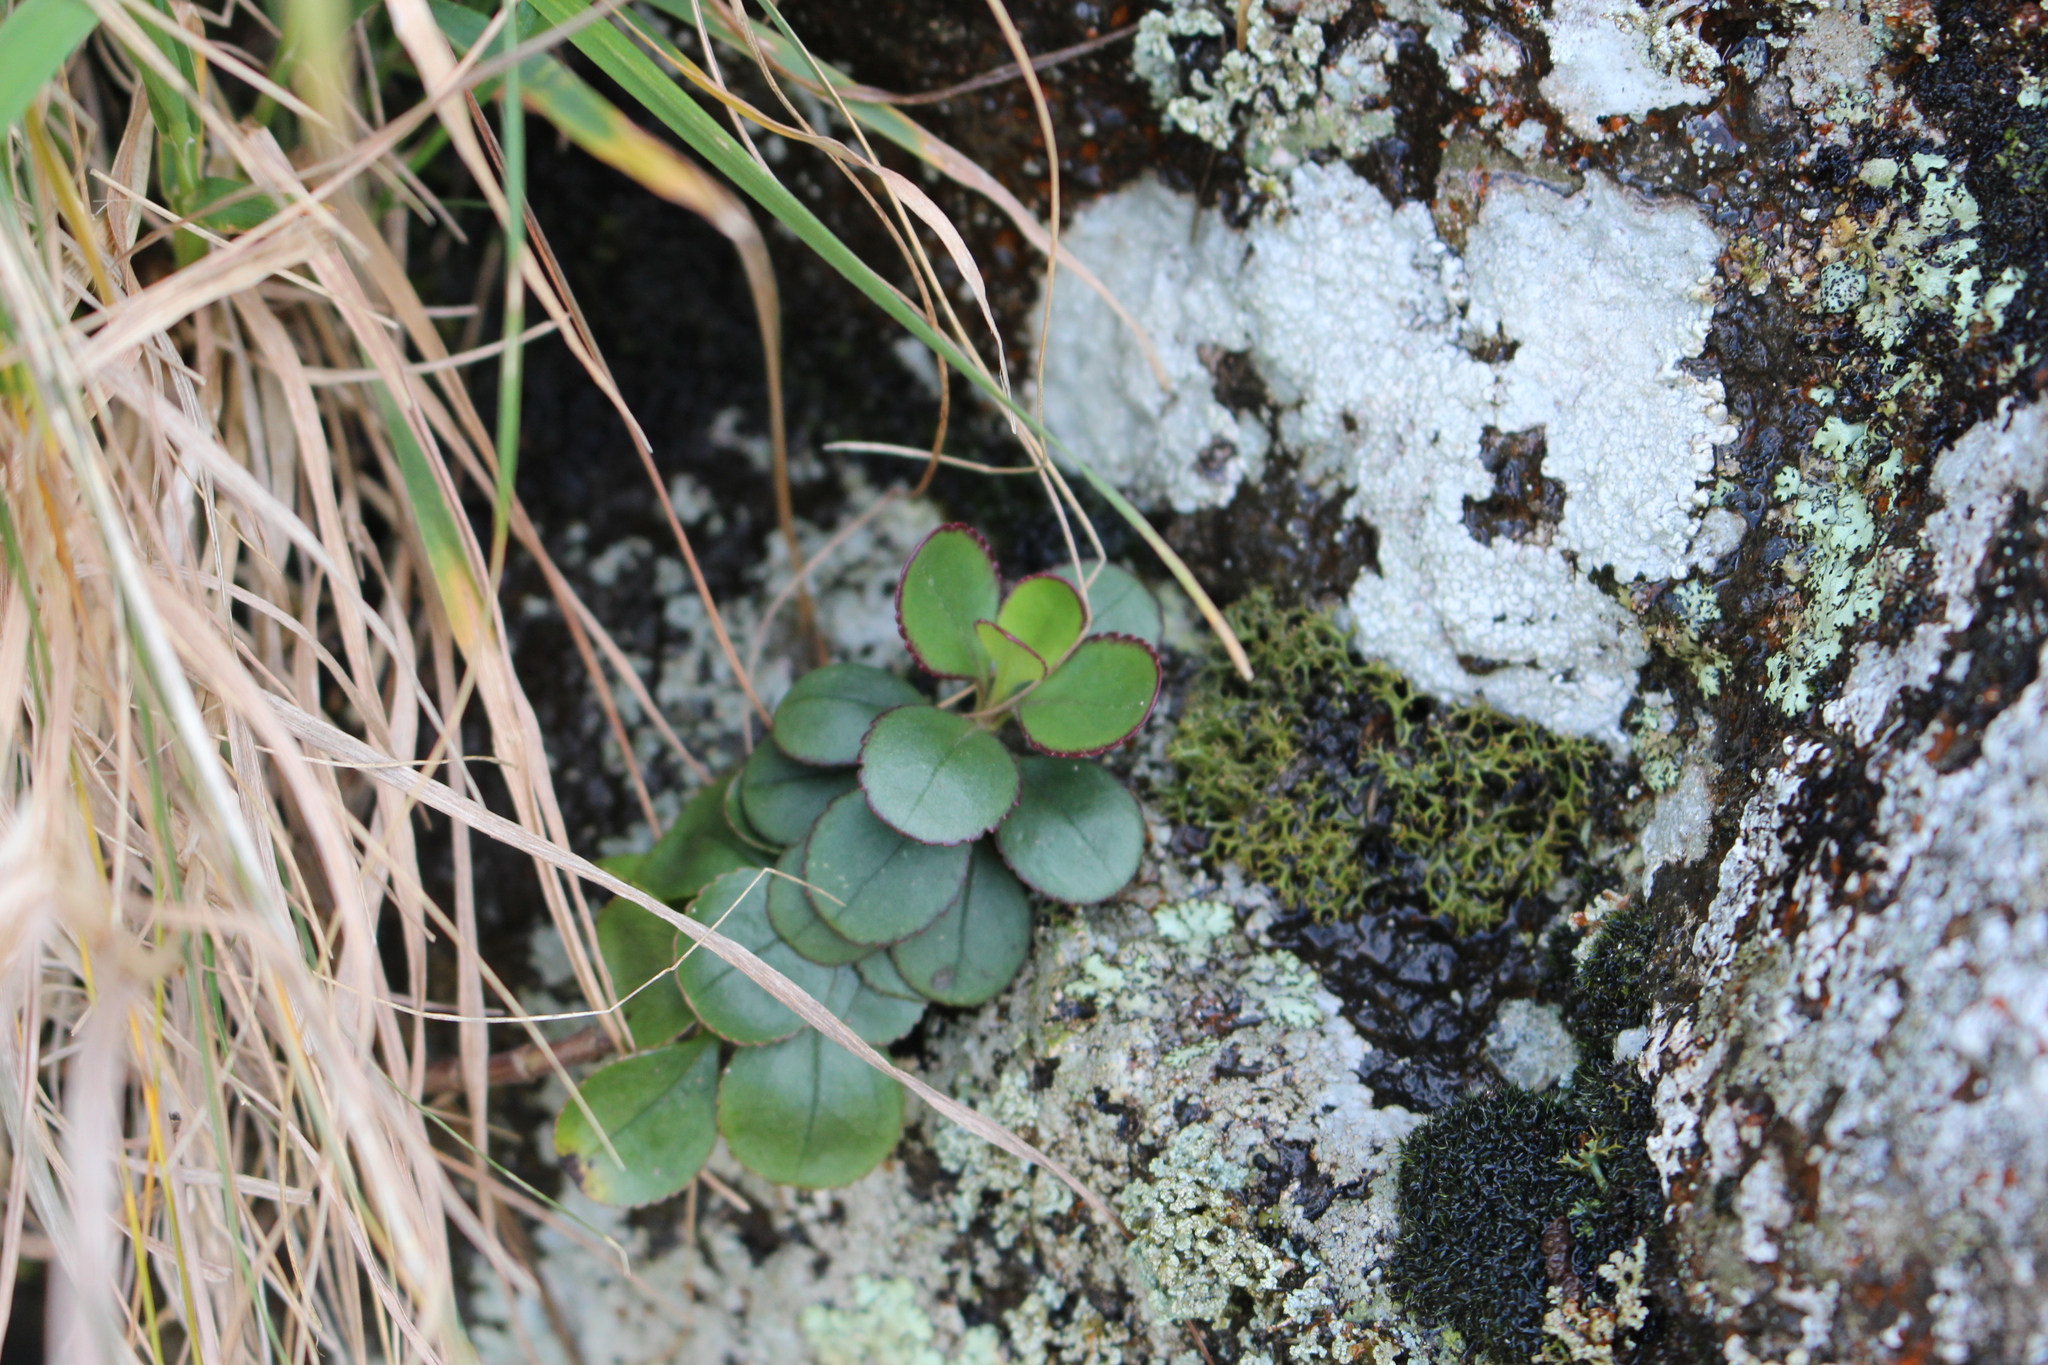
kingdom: Plantae
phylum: Tracheophyta
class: Magnoliopsida
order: Lamiales
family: Plantaginaceae
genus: Veronica
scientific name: Veronica lavaudiana
